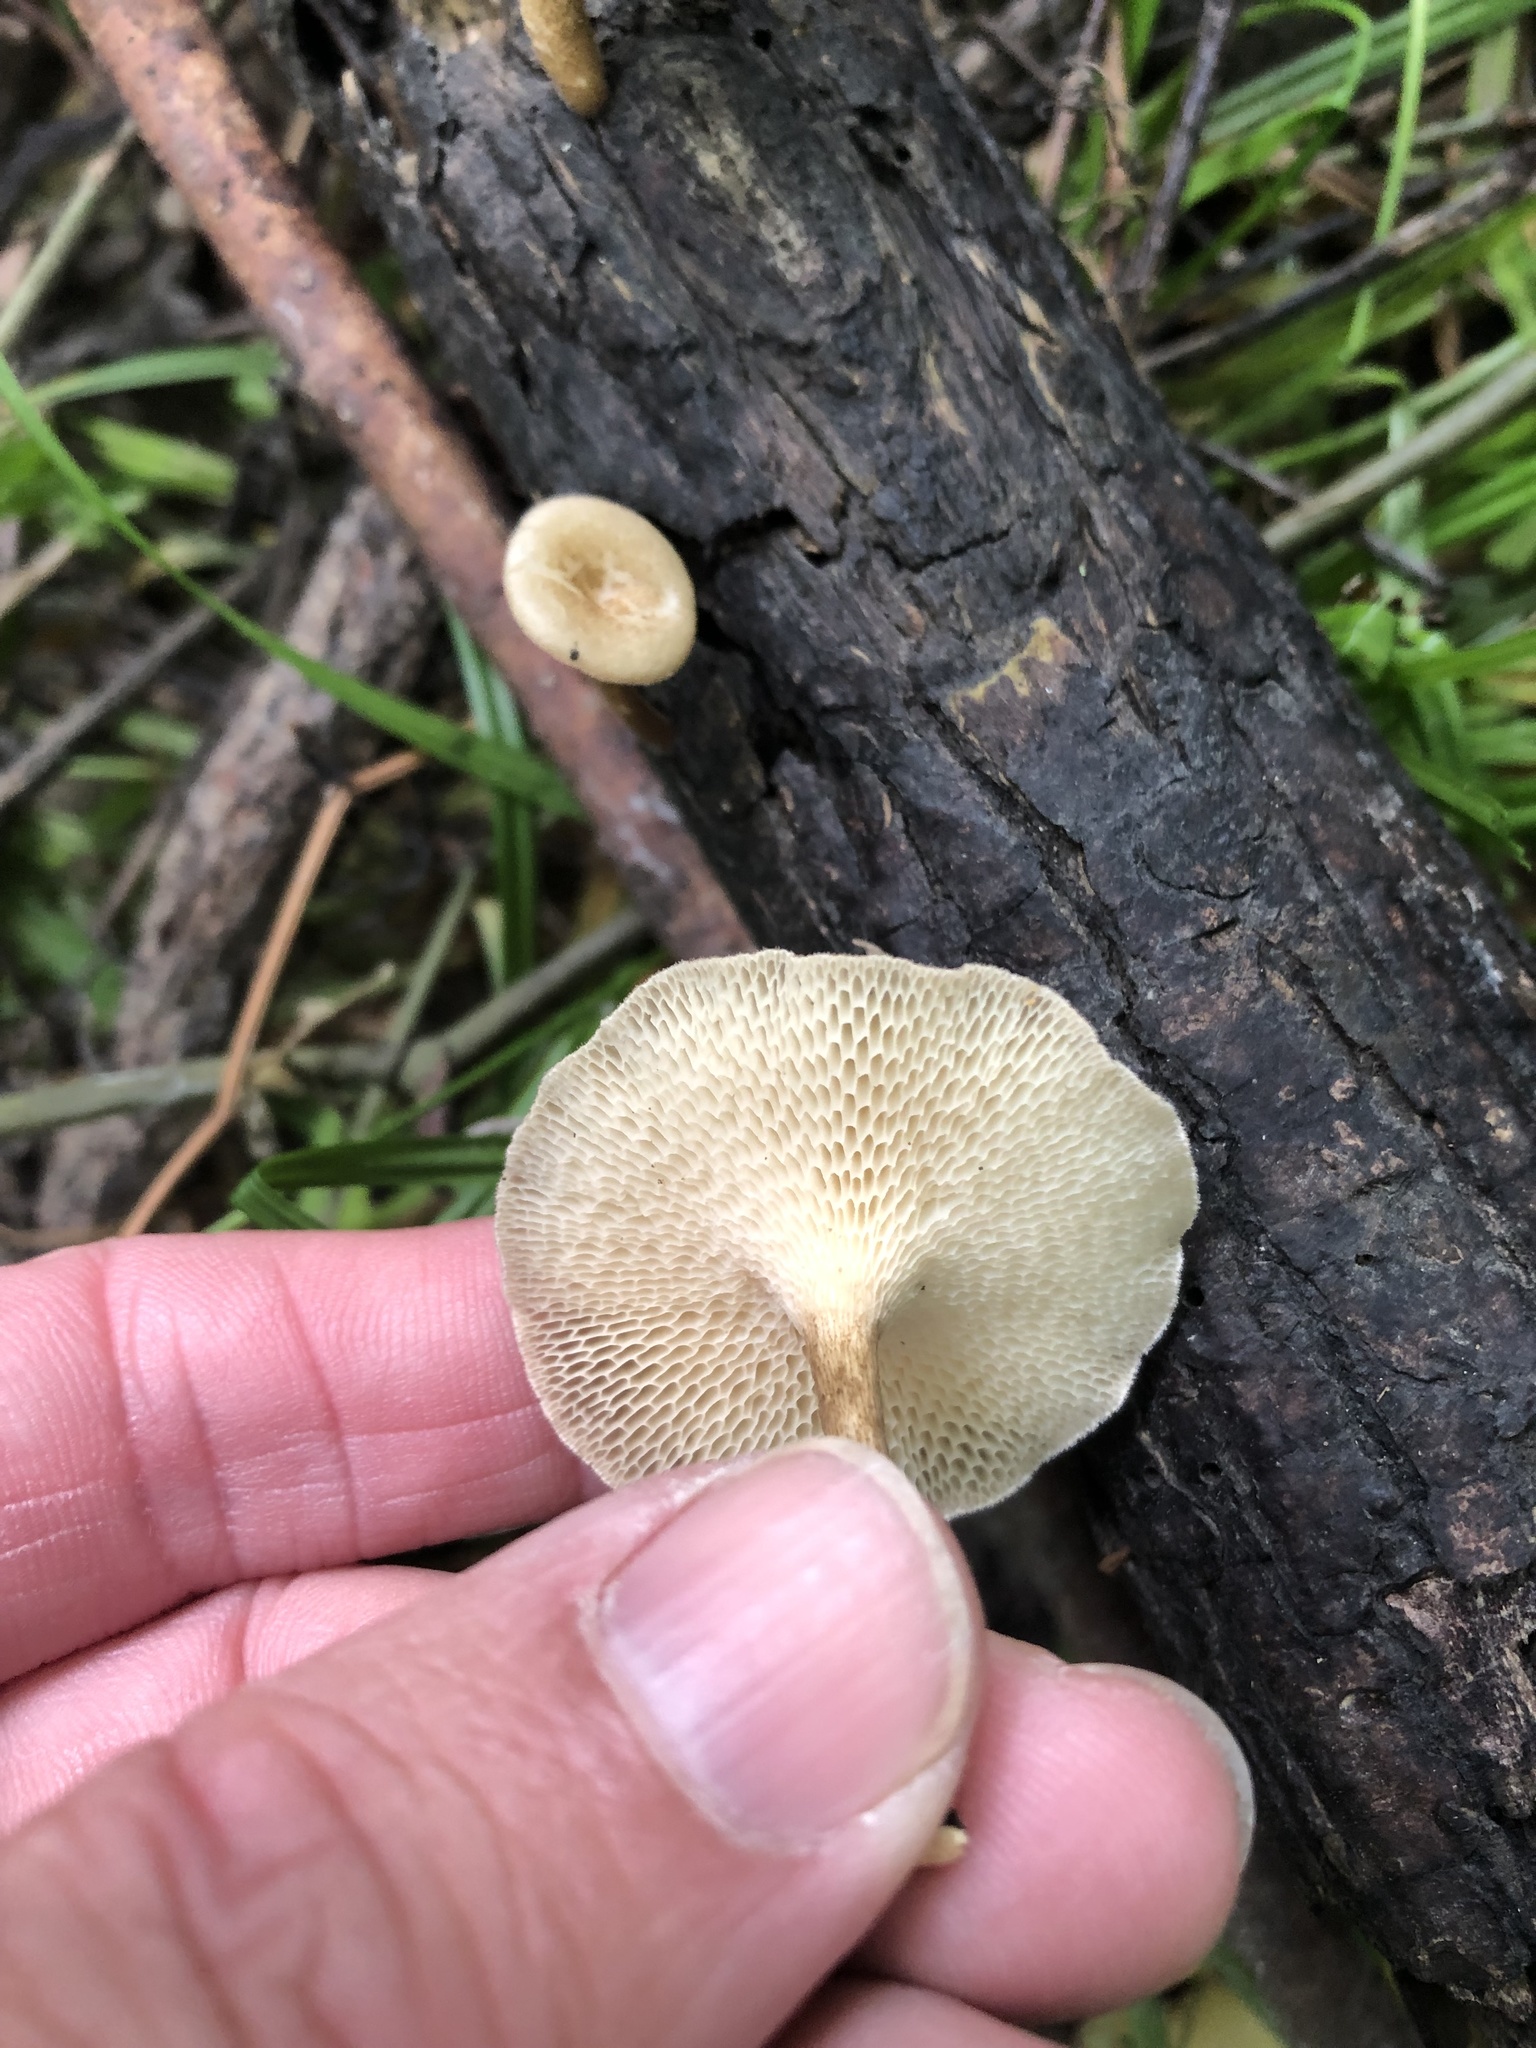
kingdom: Fungi
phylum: Basidiomycota
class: Agaricomycetes
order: Polyporales
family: Polyporaceae
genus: Lentinus
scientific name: Lentinus arcularius
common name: Spring polypore
